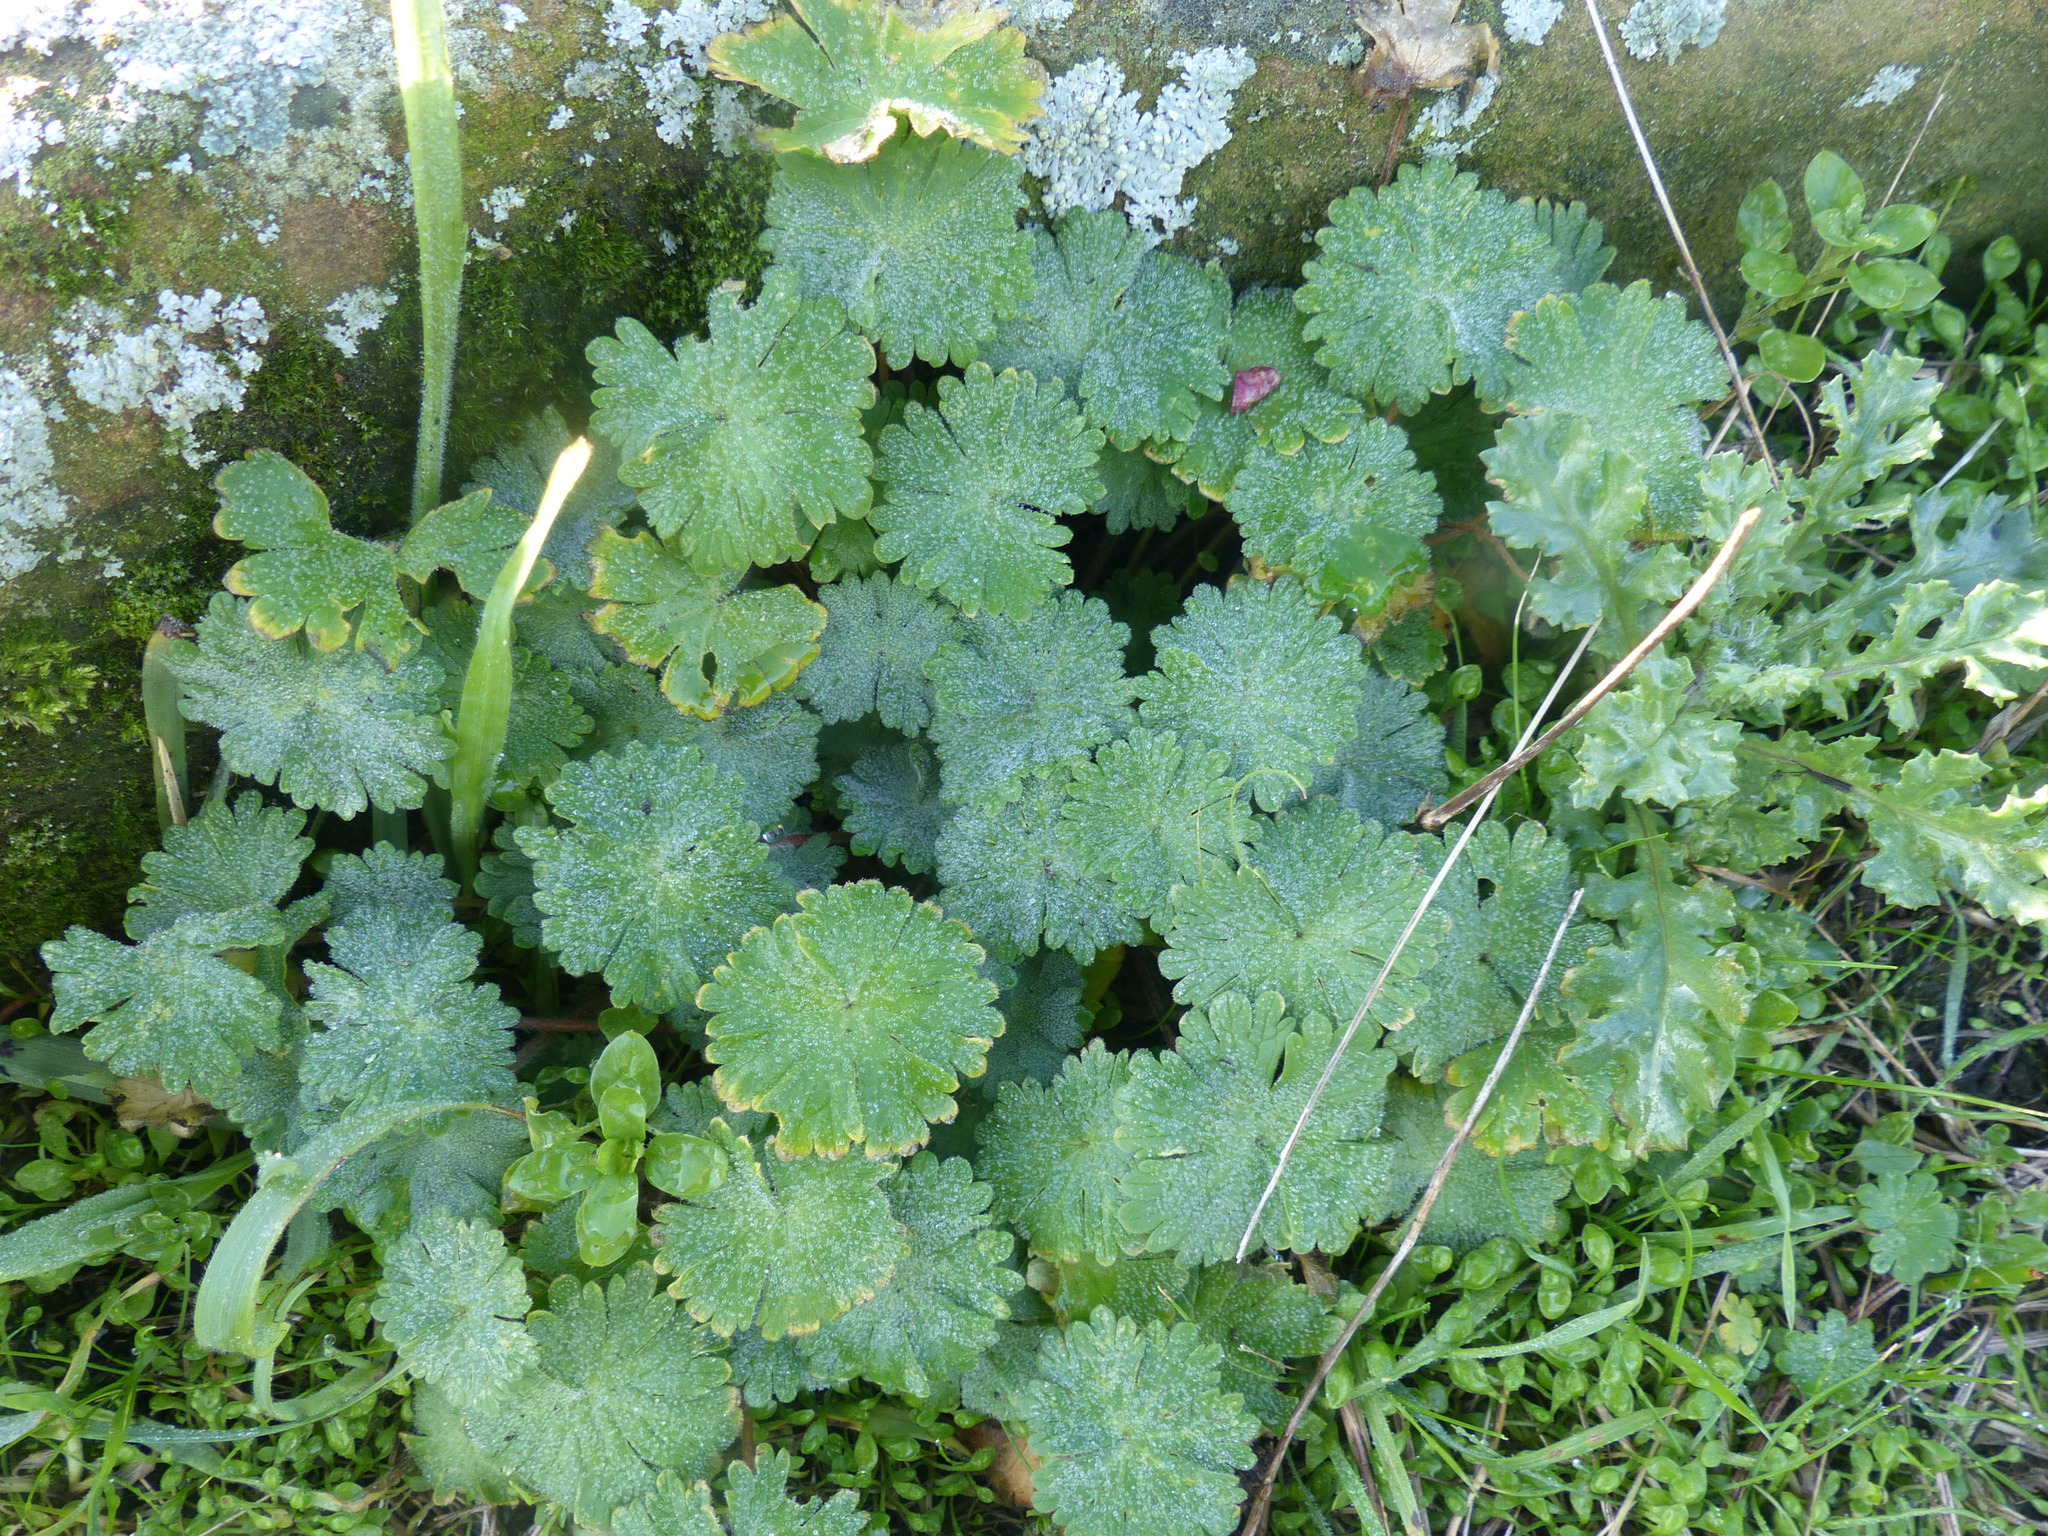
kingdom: Plantae
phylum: Tracheophyta
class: Magnoliopsida
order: Geraniales
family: Geraniaceae
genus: Geranium
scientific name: Geranium molle
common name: Dove's-foot crane's-bill
